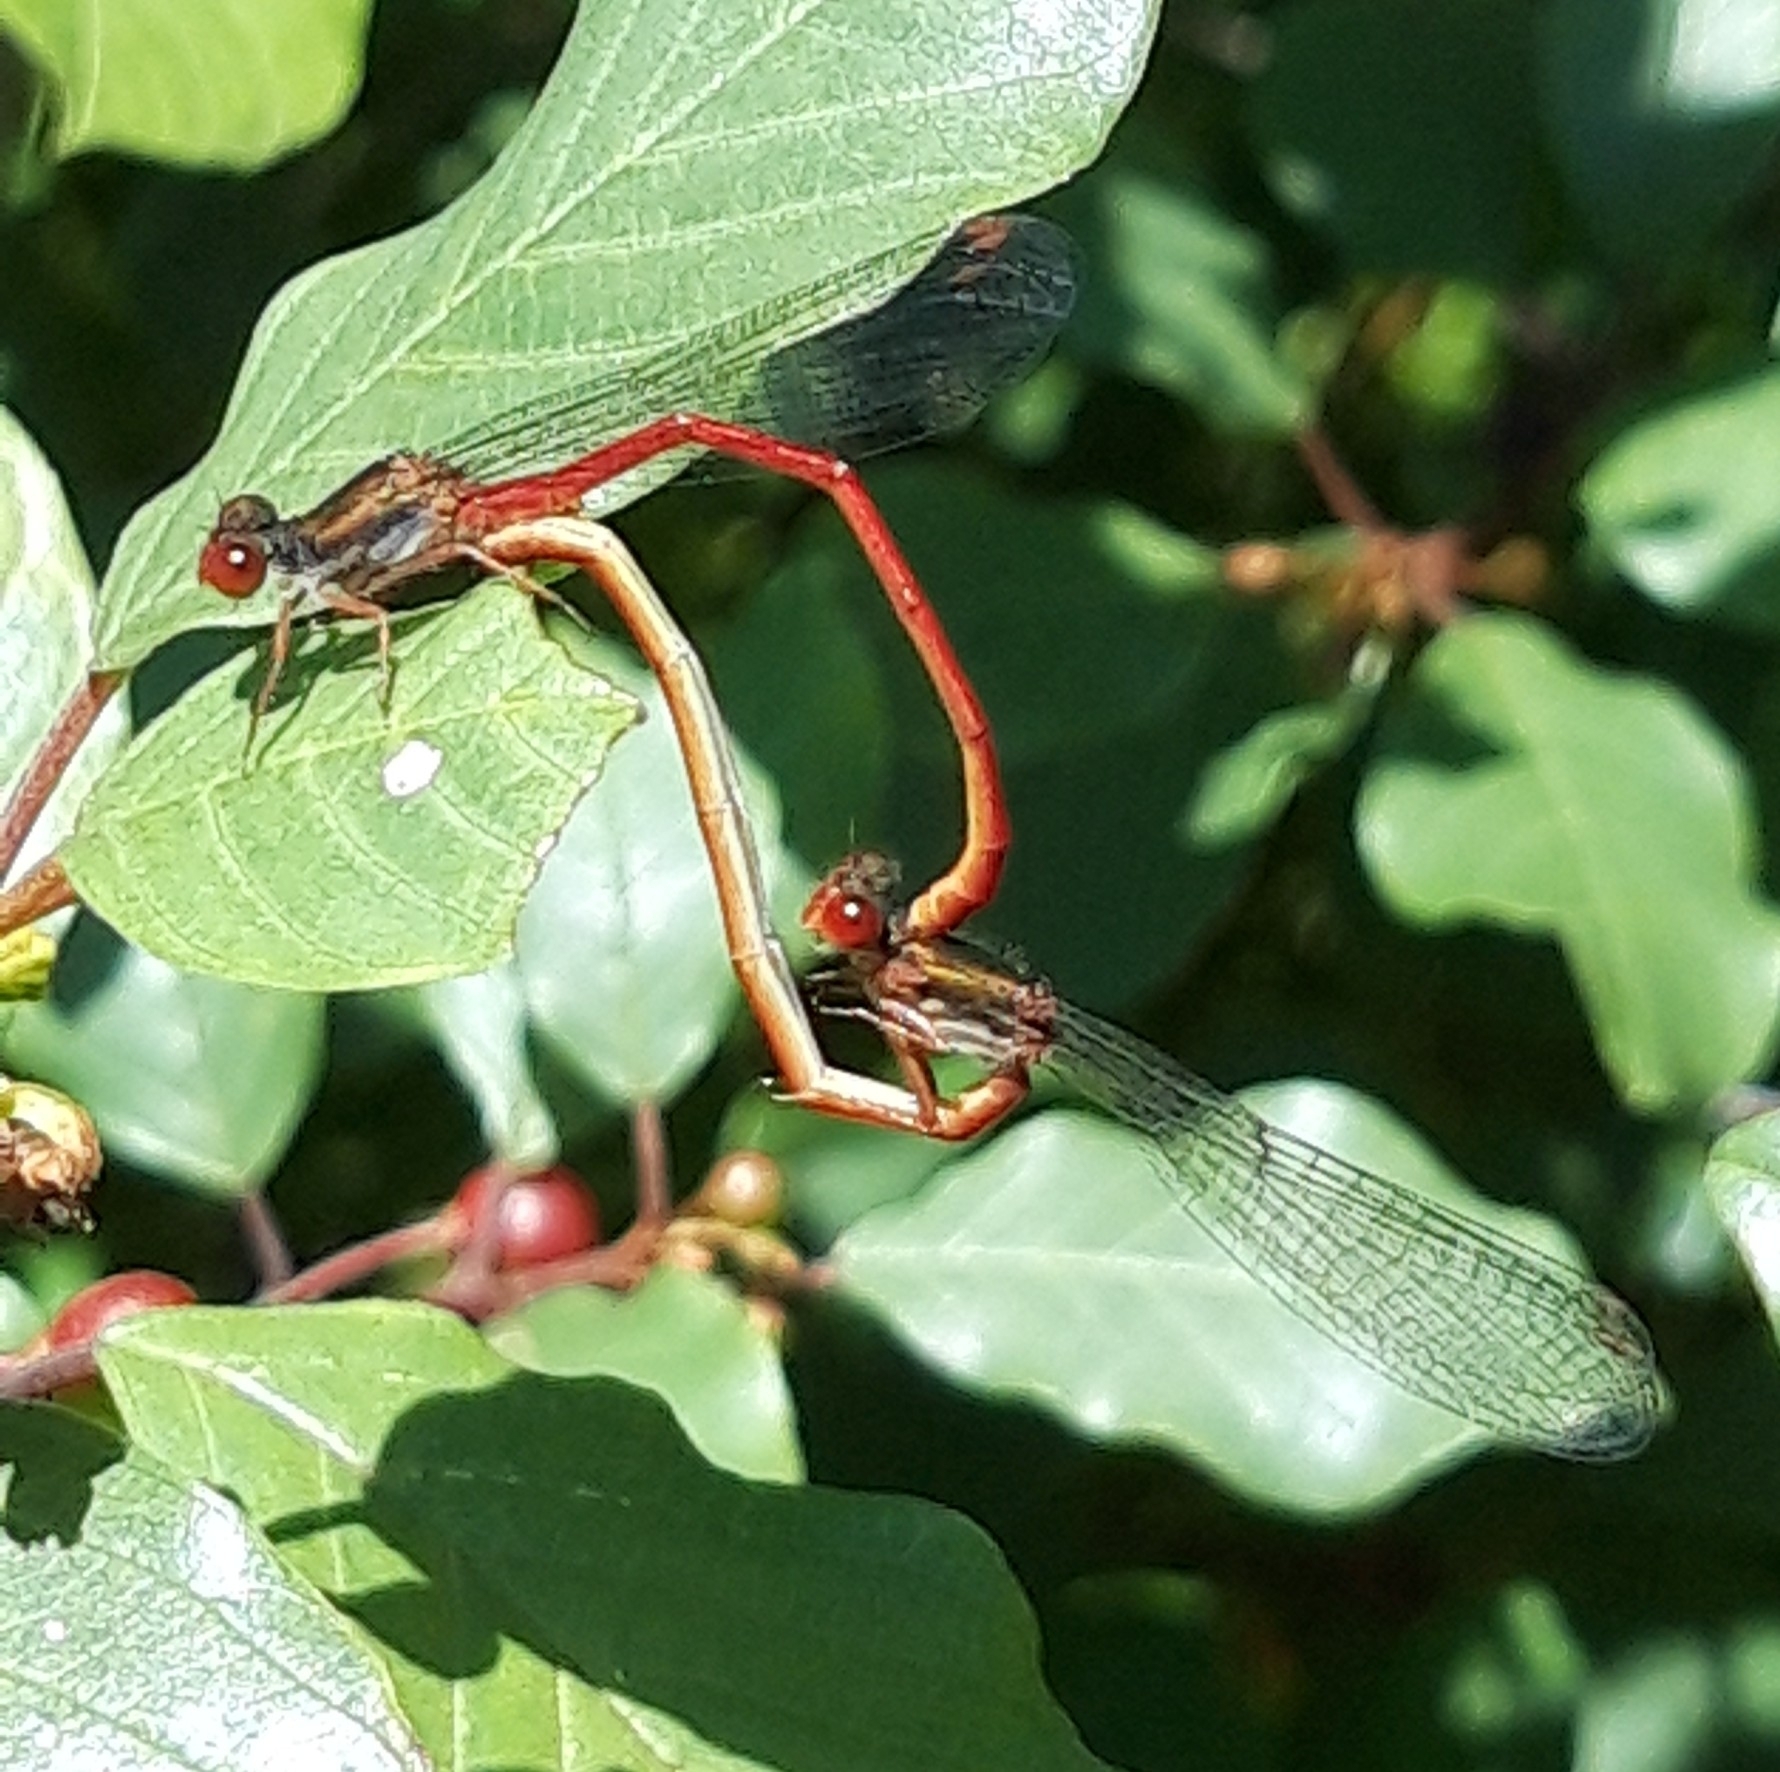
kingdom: Animalia
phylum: Arthropoda
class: Insecta
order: Odonata
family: Coenagrionidae
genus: Ceriagrion
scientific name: Ceriagrion tenellum
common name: Small red damselfly
